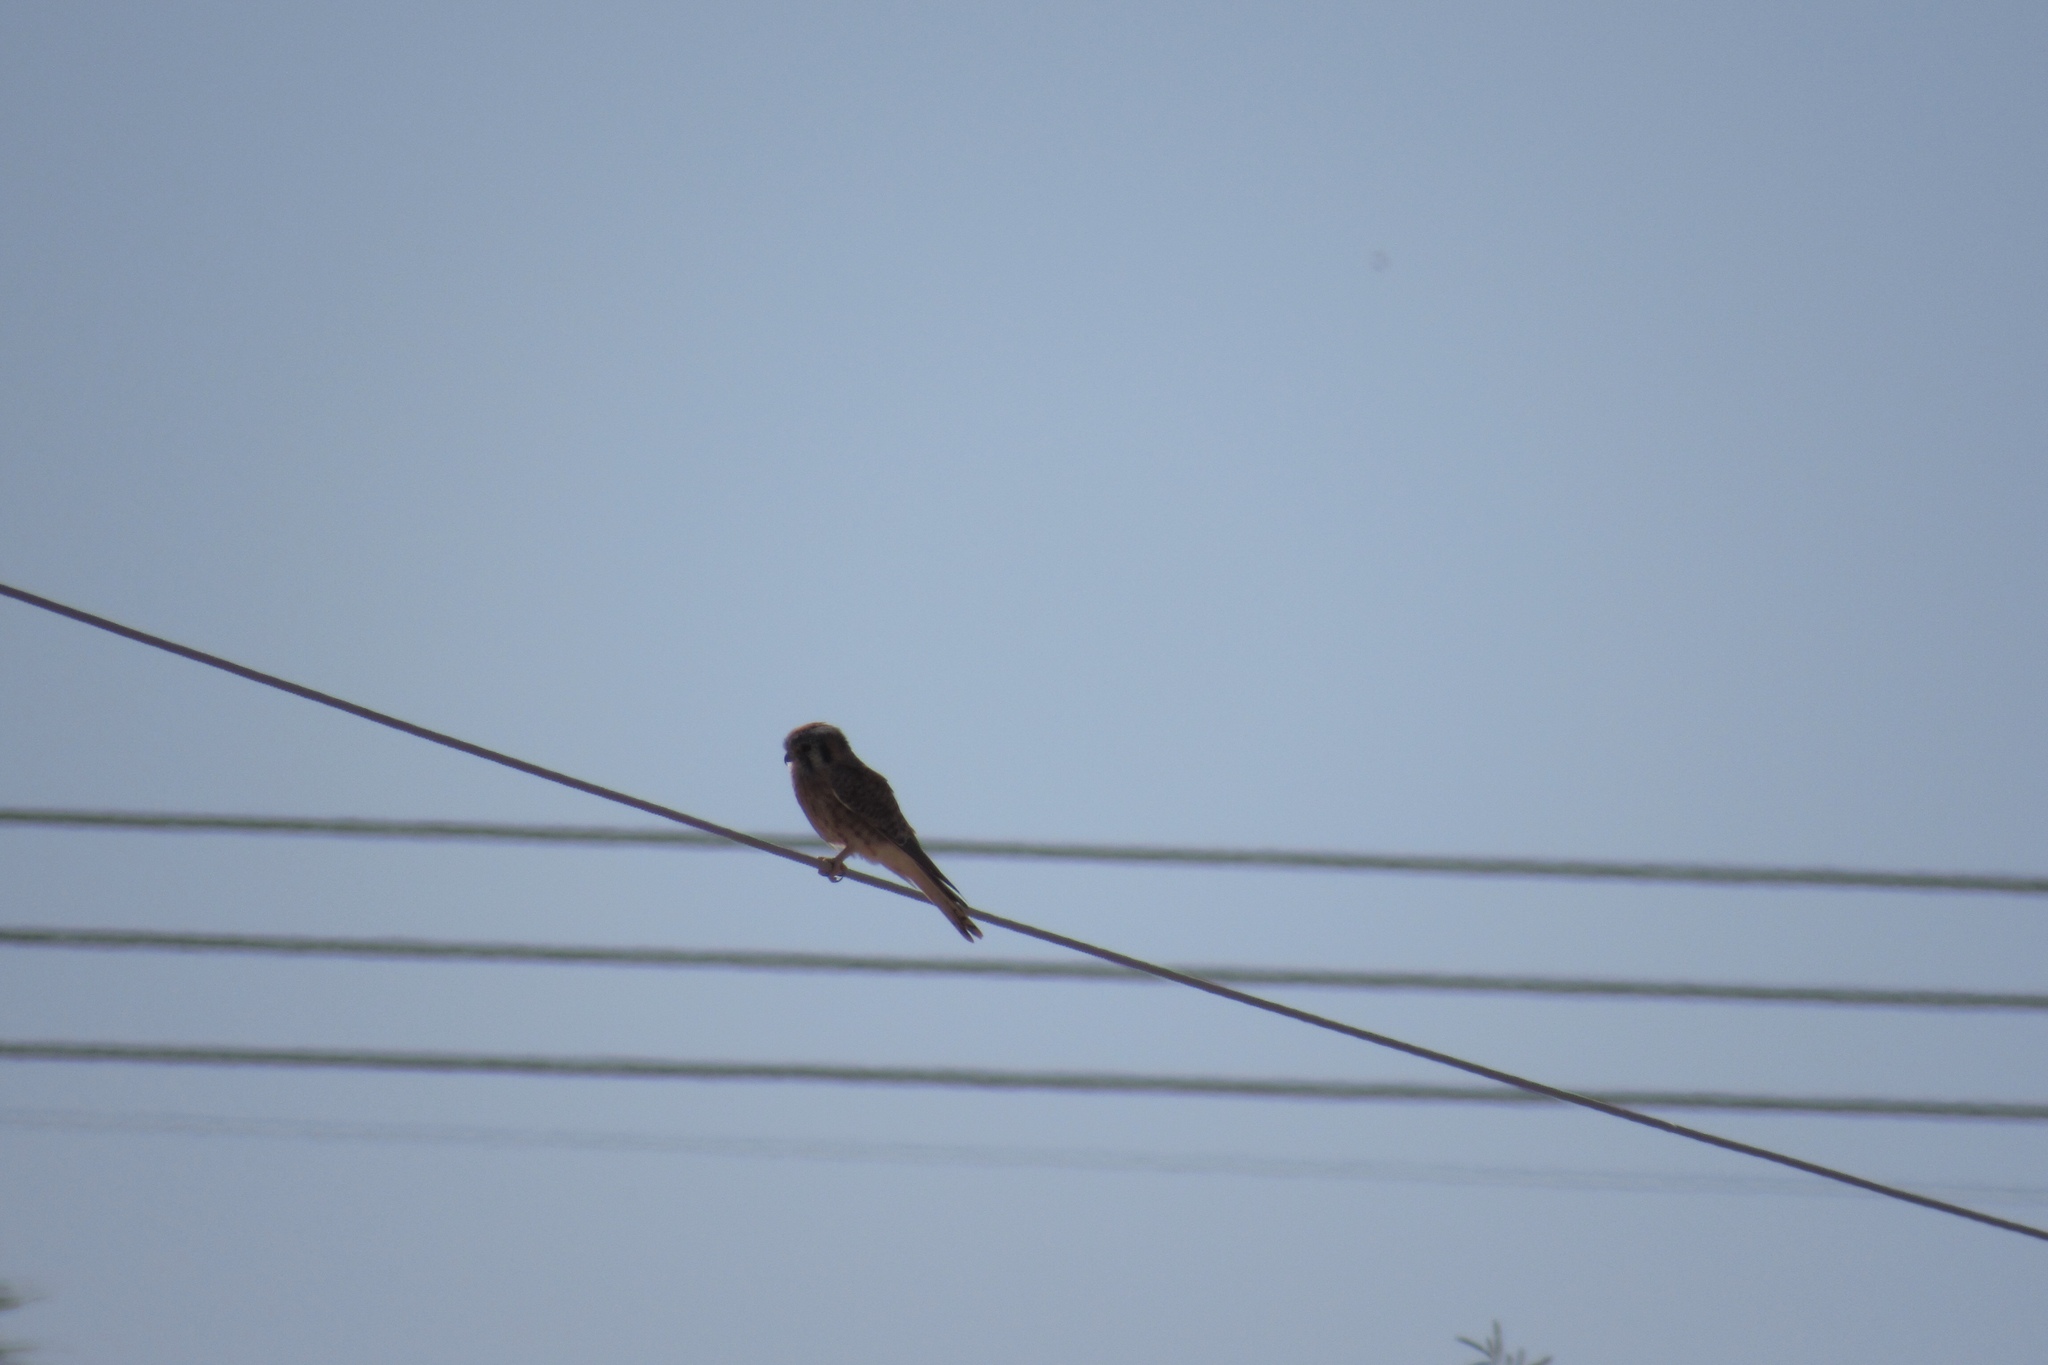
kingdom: Animalia
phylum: Chordata
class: Aves
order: Falconiformes
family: Falconidae
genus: Falco
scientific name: Falco sparverius
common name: American kestrel
